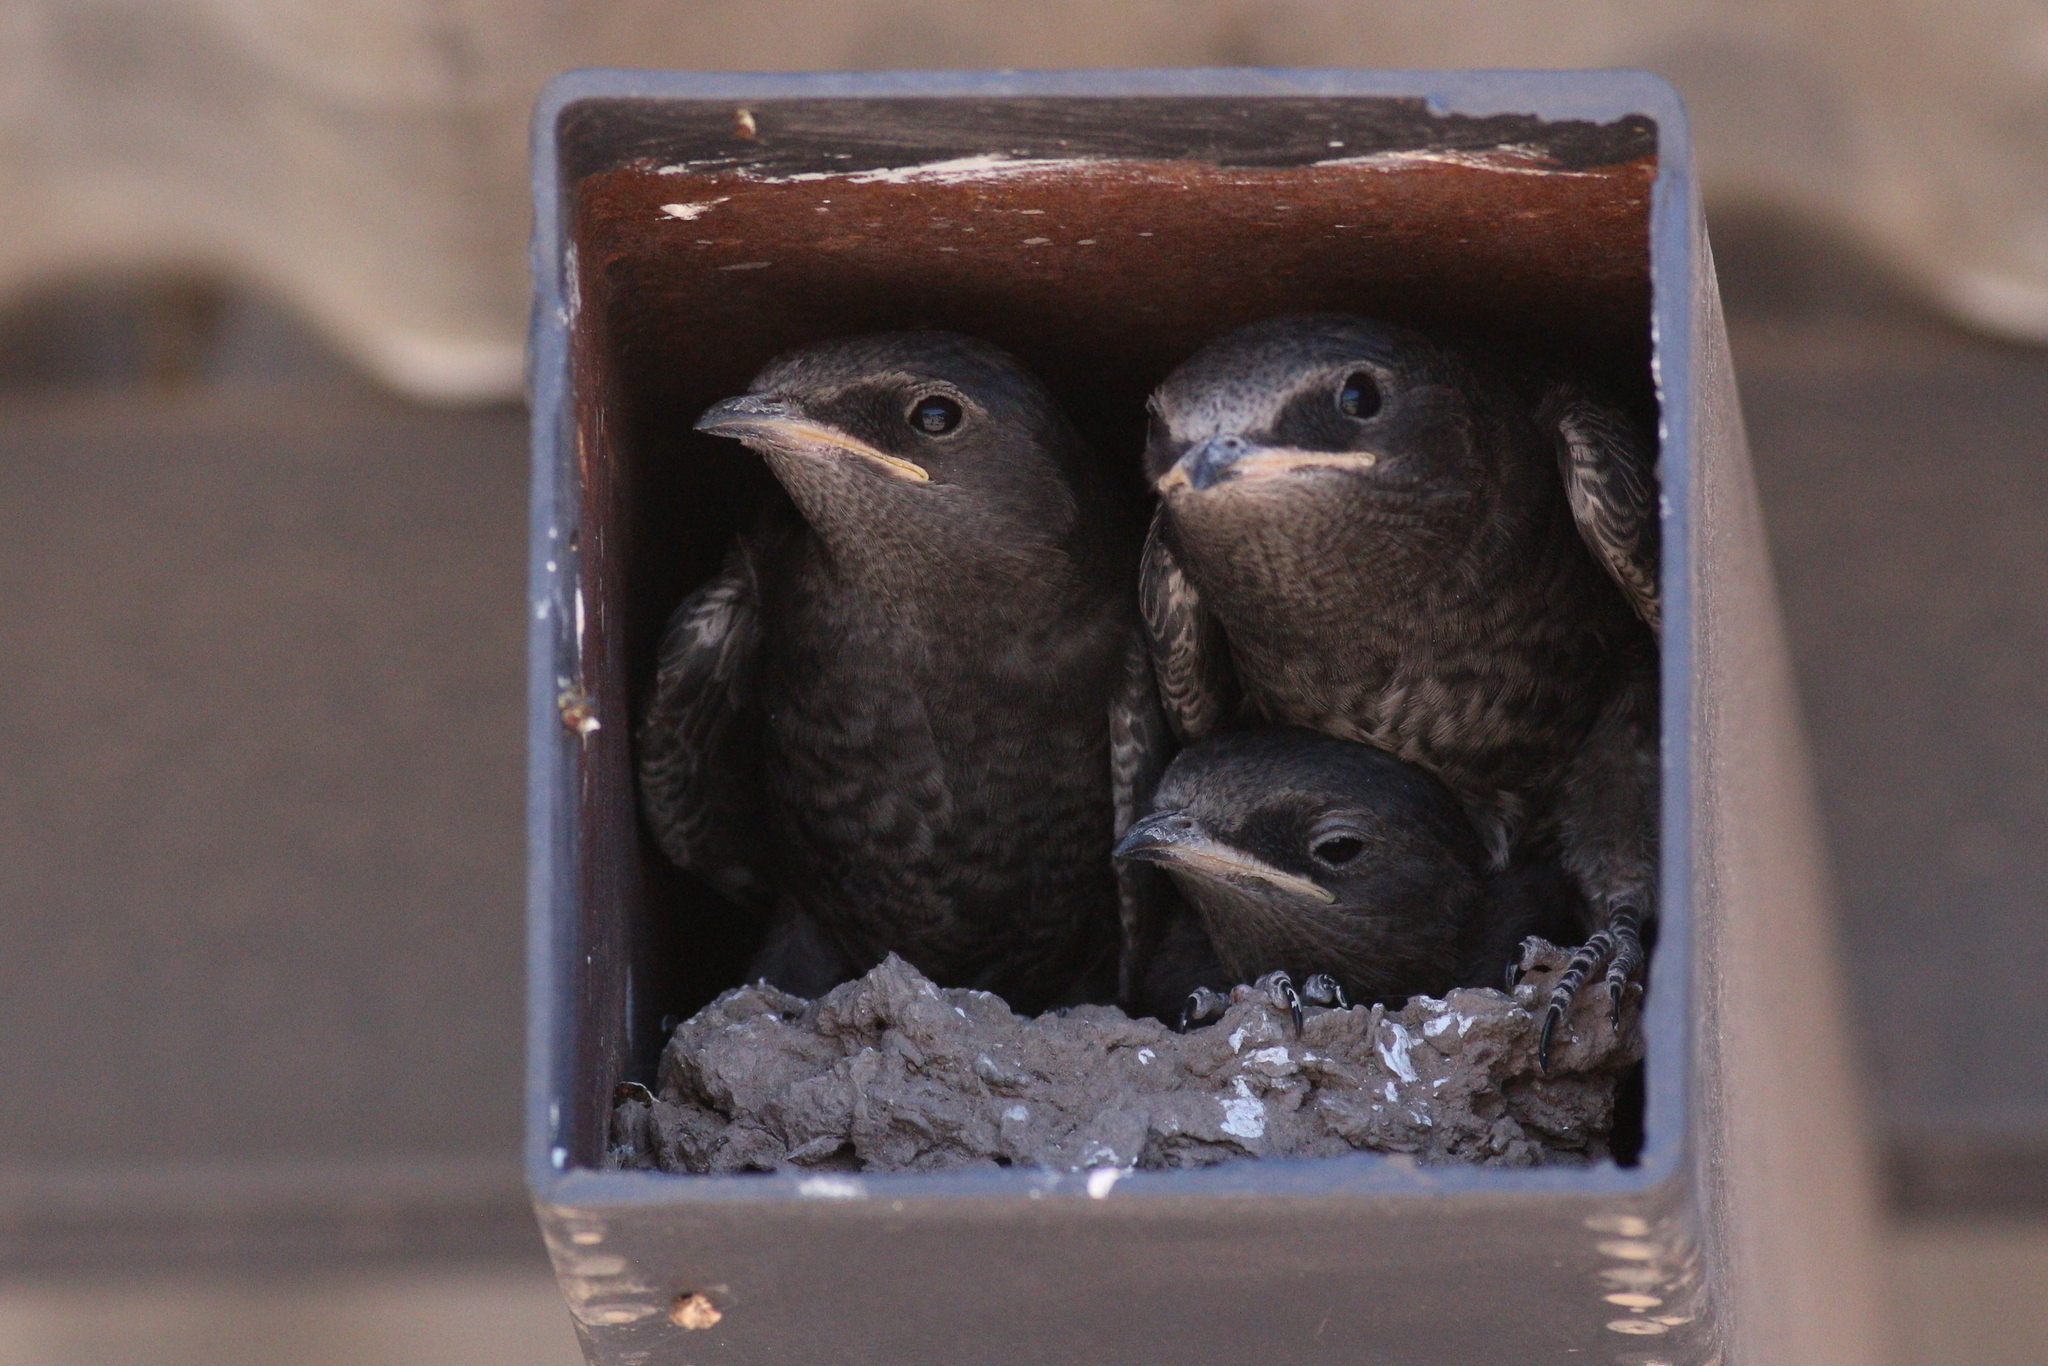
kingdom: Animalia
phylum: Chordata
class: Aves
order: Passeriformes
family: Hirundinidae
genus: Progne
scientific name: Progne elegans
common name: Southern martin
